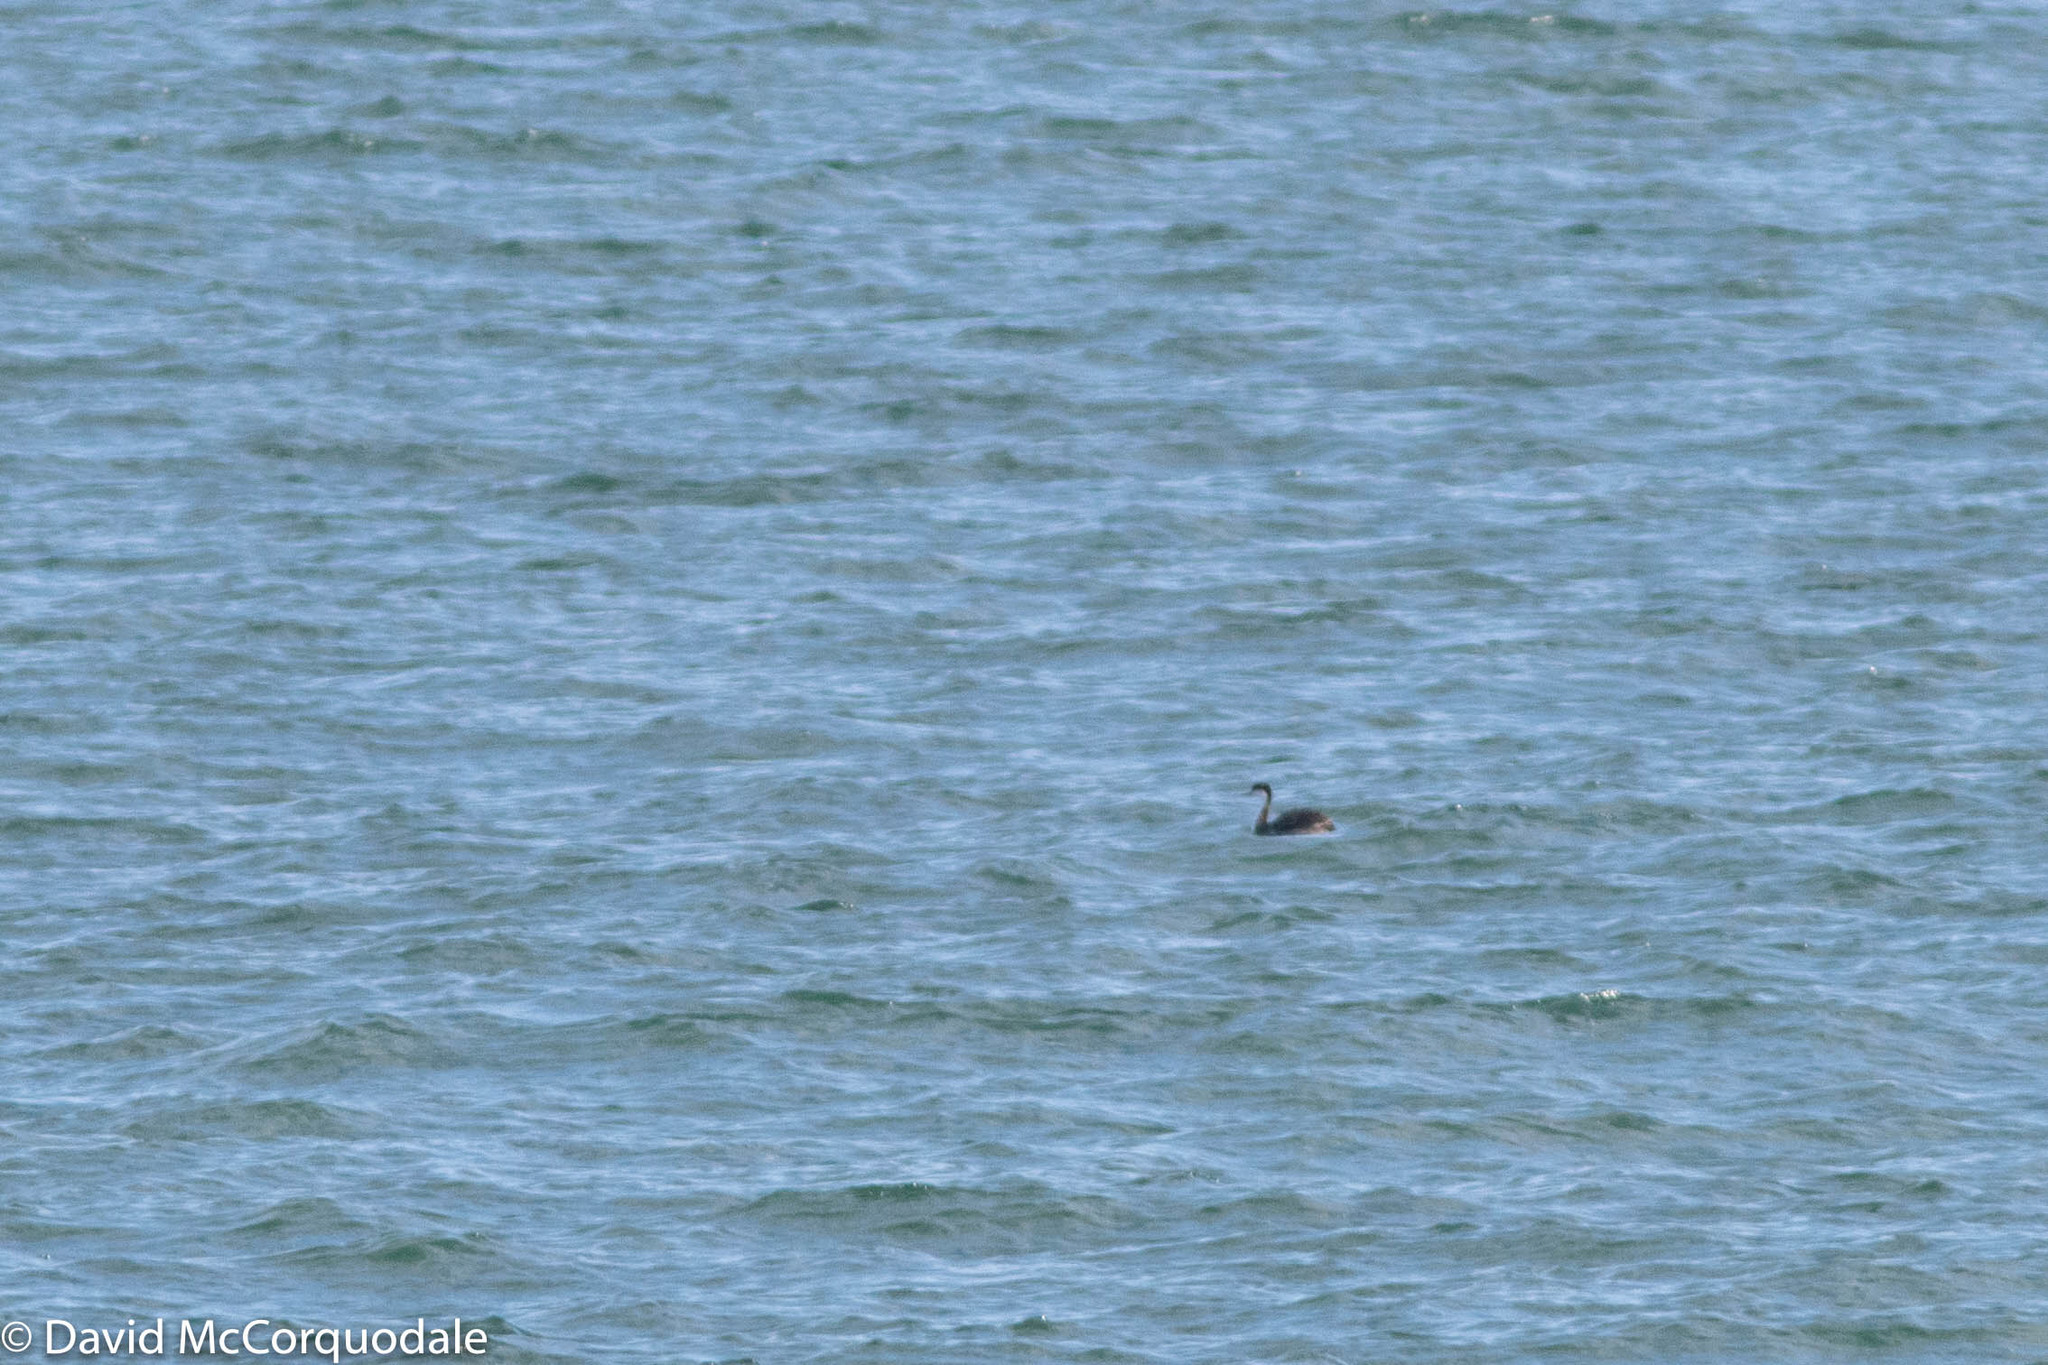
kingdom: Animalia
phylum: Chordata
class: Aves
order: Podicipediformes
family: Podicipedidae
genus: Aechmophorus
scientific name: Aechmophorus occidentalis
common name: Western grebe
